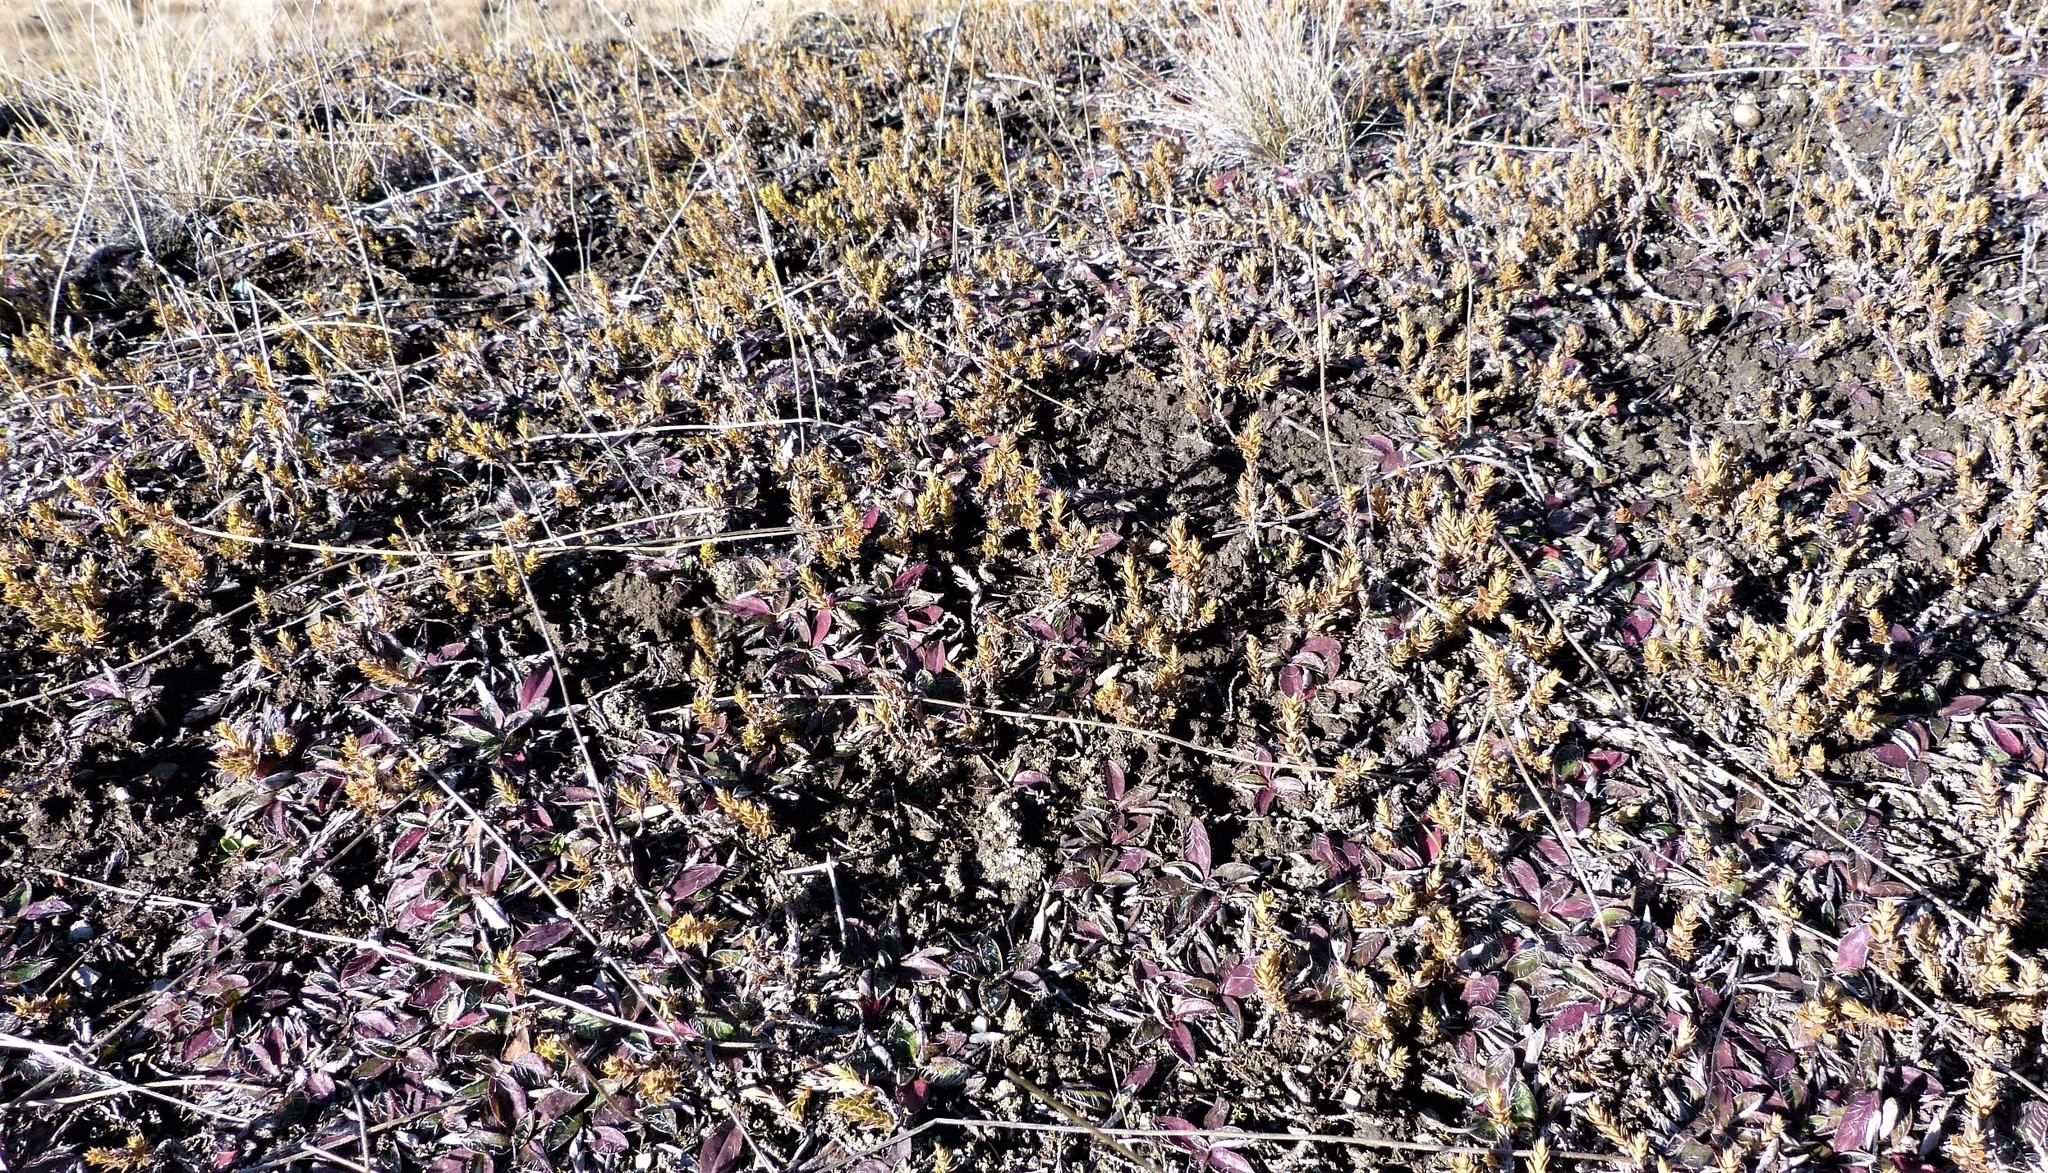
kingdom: Plantae
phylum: Tracheophyta
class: Magnoliopsida
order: Ericales
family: Ericaceae
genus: Styphelia
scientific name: Styphelia nesophila
